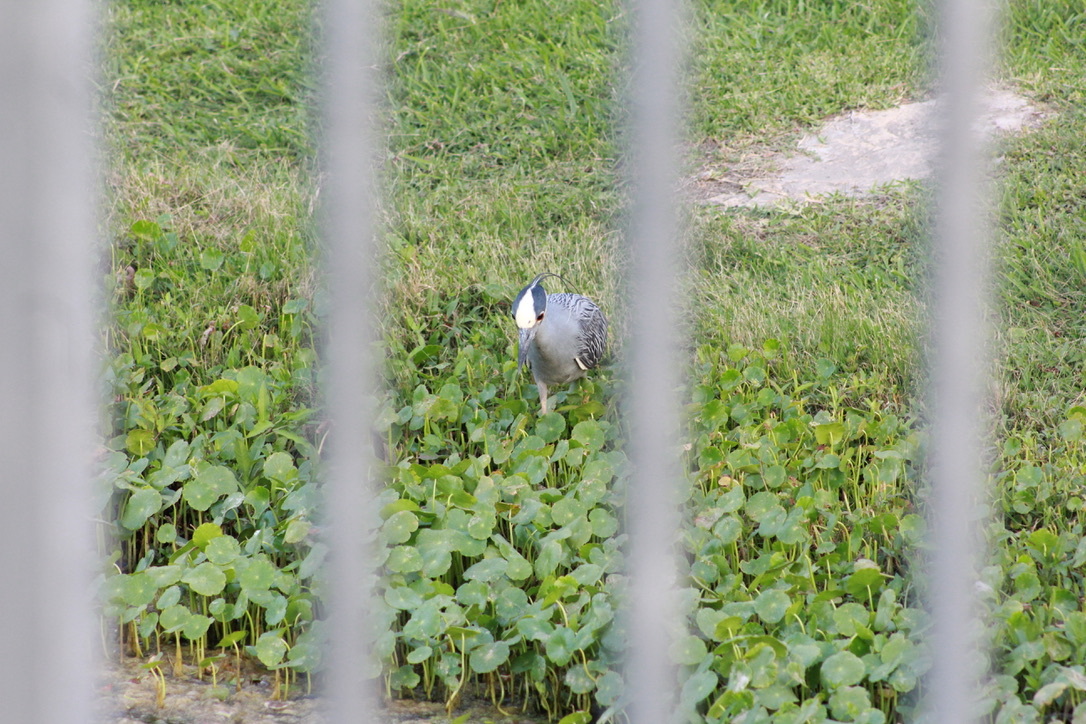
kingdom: Animalia
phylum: Chordata
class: Aves
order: Pelecaniformes
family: Ardeidae
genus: Nyctanassa
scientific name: Nyctanassa violacea
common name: Yellow-crowned night heron
